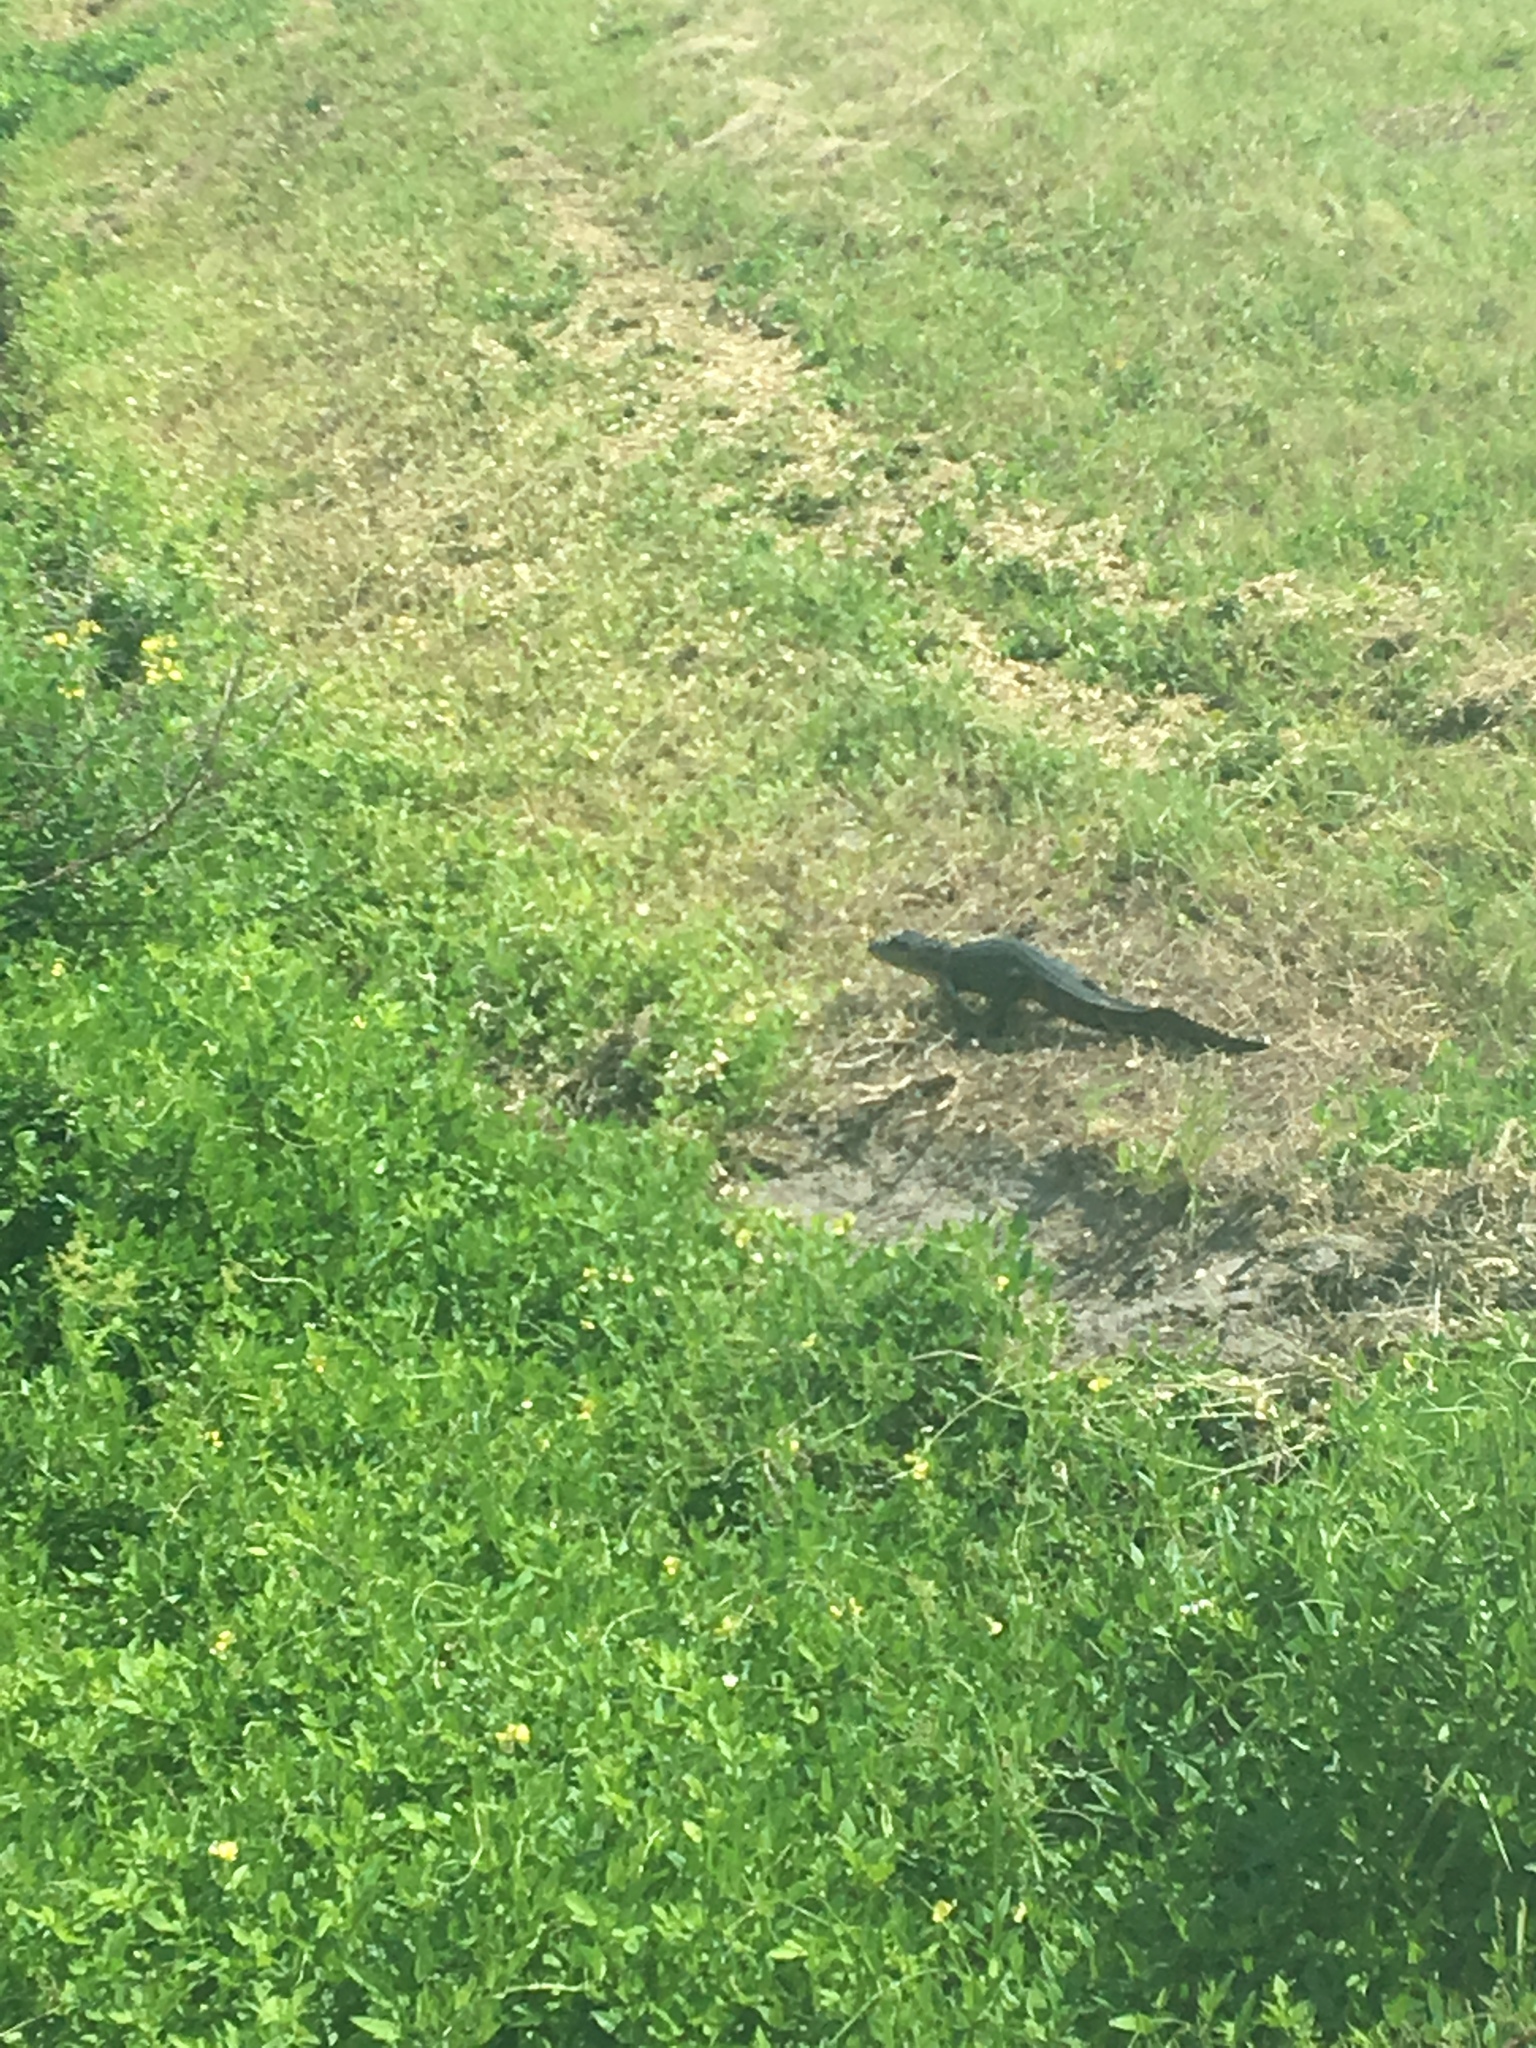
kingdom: Animalia
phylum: Chordata
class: Crocodylia
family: Alligatoridae
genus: Alligator
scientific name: Alligator mississippiensis
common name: American alligator
